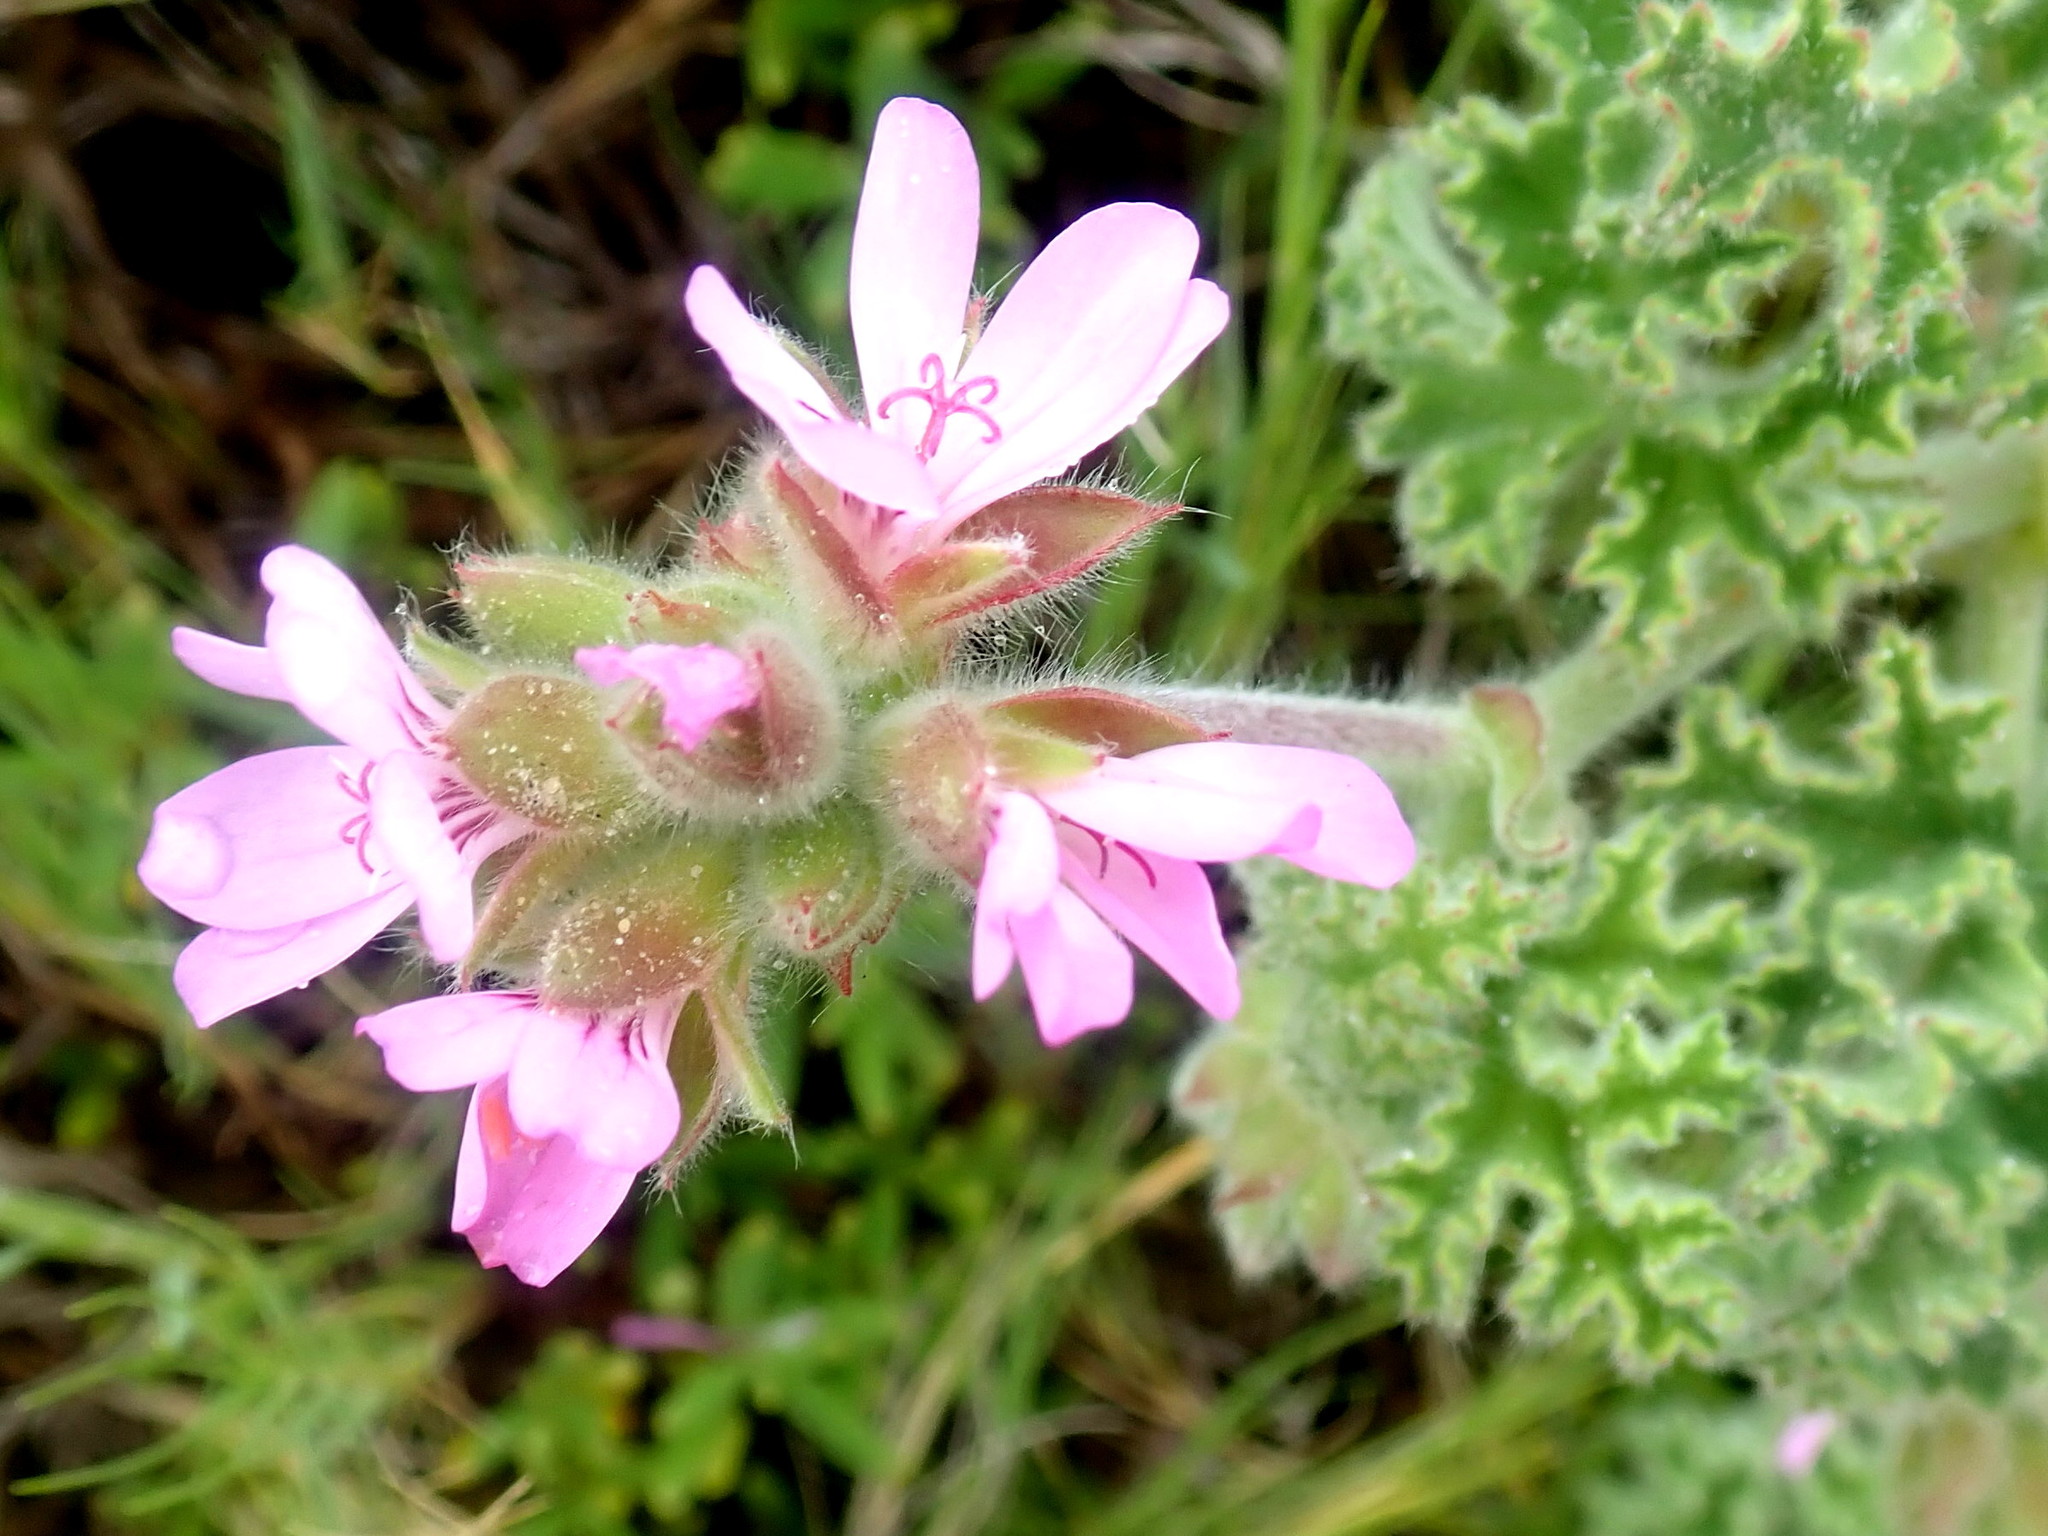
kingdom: Plantae
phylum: Tracheophyta
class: Magnoliopsida
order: Geraniales
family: Geraniaceae
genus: Pelargonium
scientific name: Pelargonium capitatum
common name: Rose scented geranium
